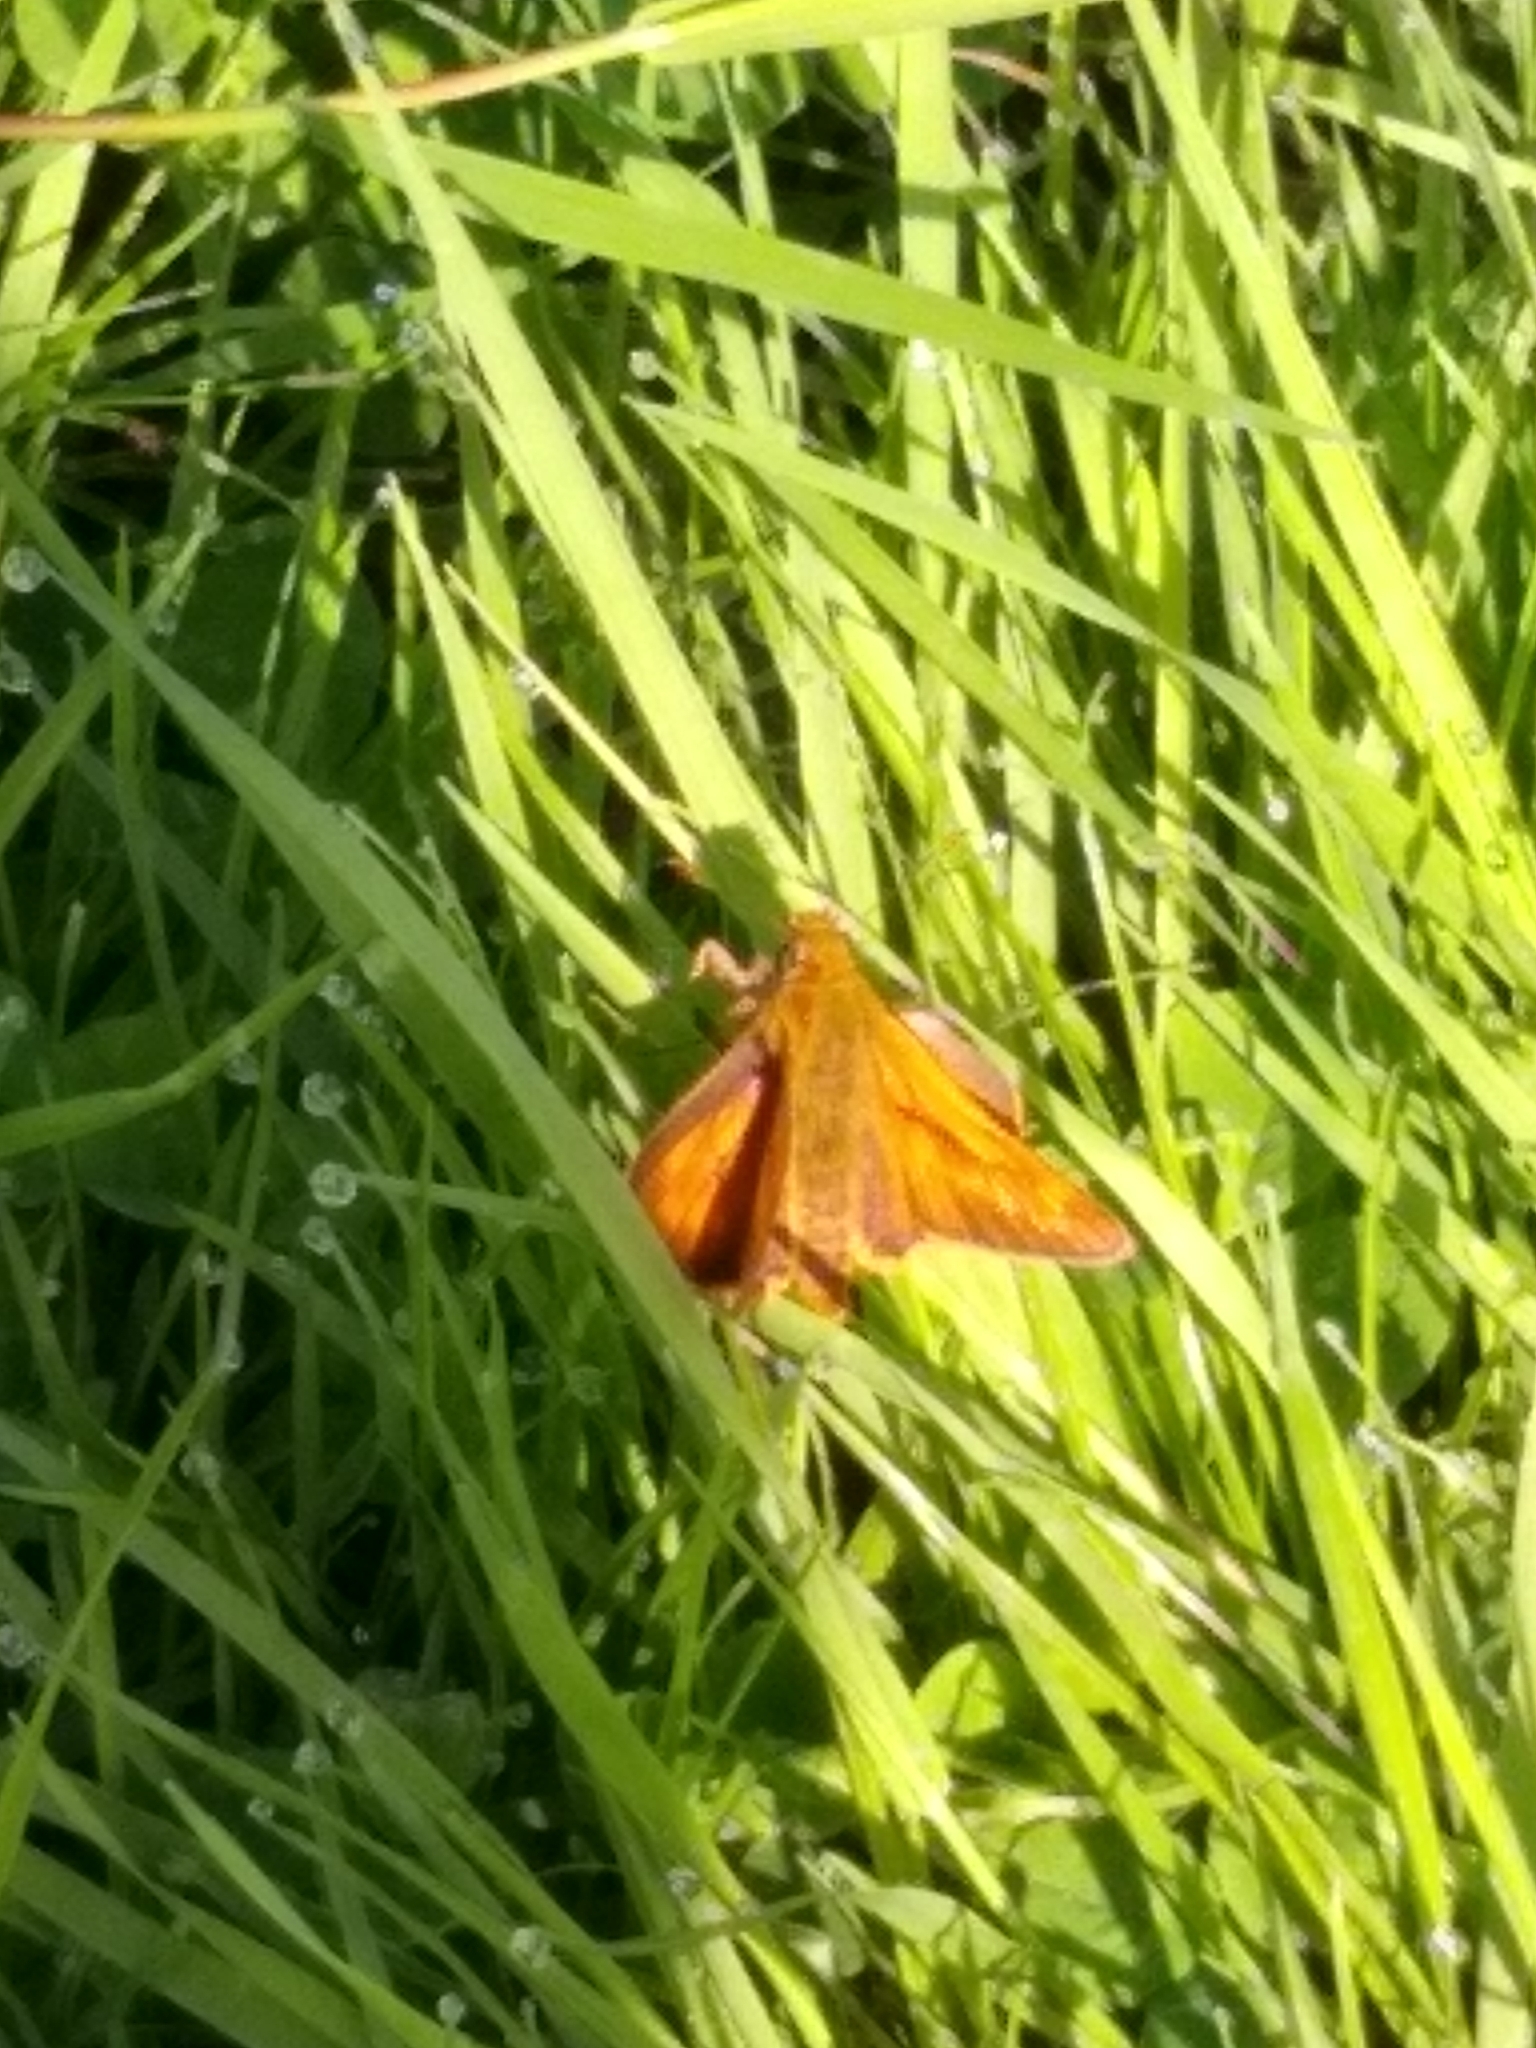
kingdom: Animalia
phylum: Arthropoda
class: Insecta
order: Lepidoptera
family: Hesperiidae
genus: Ochlodes
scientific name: Ochlodes venata
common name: Large skipper
